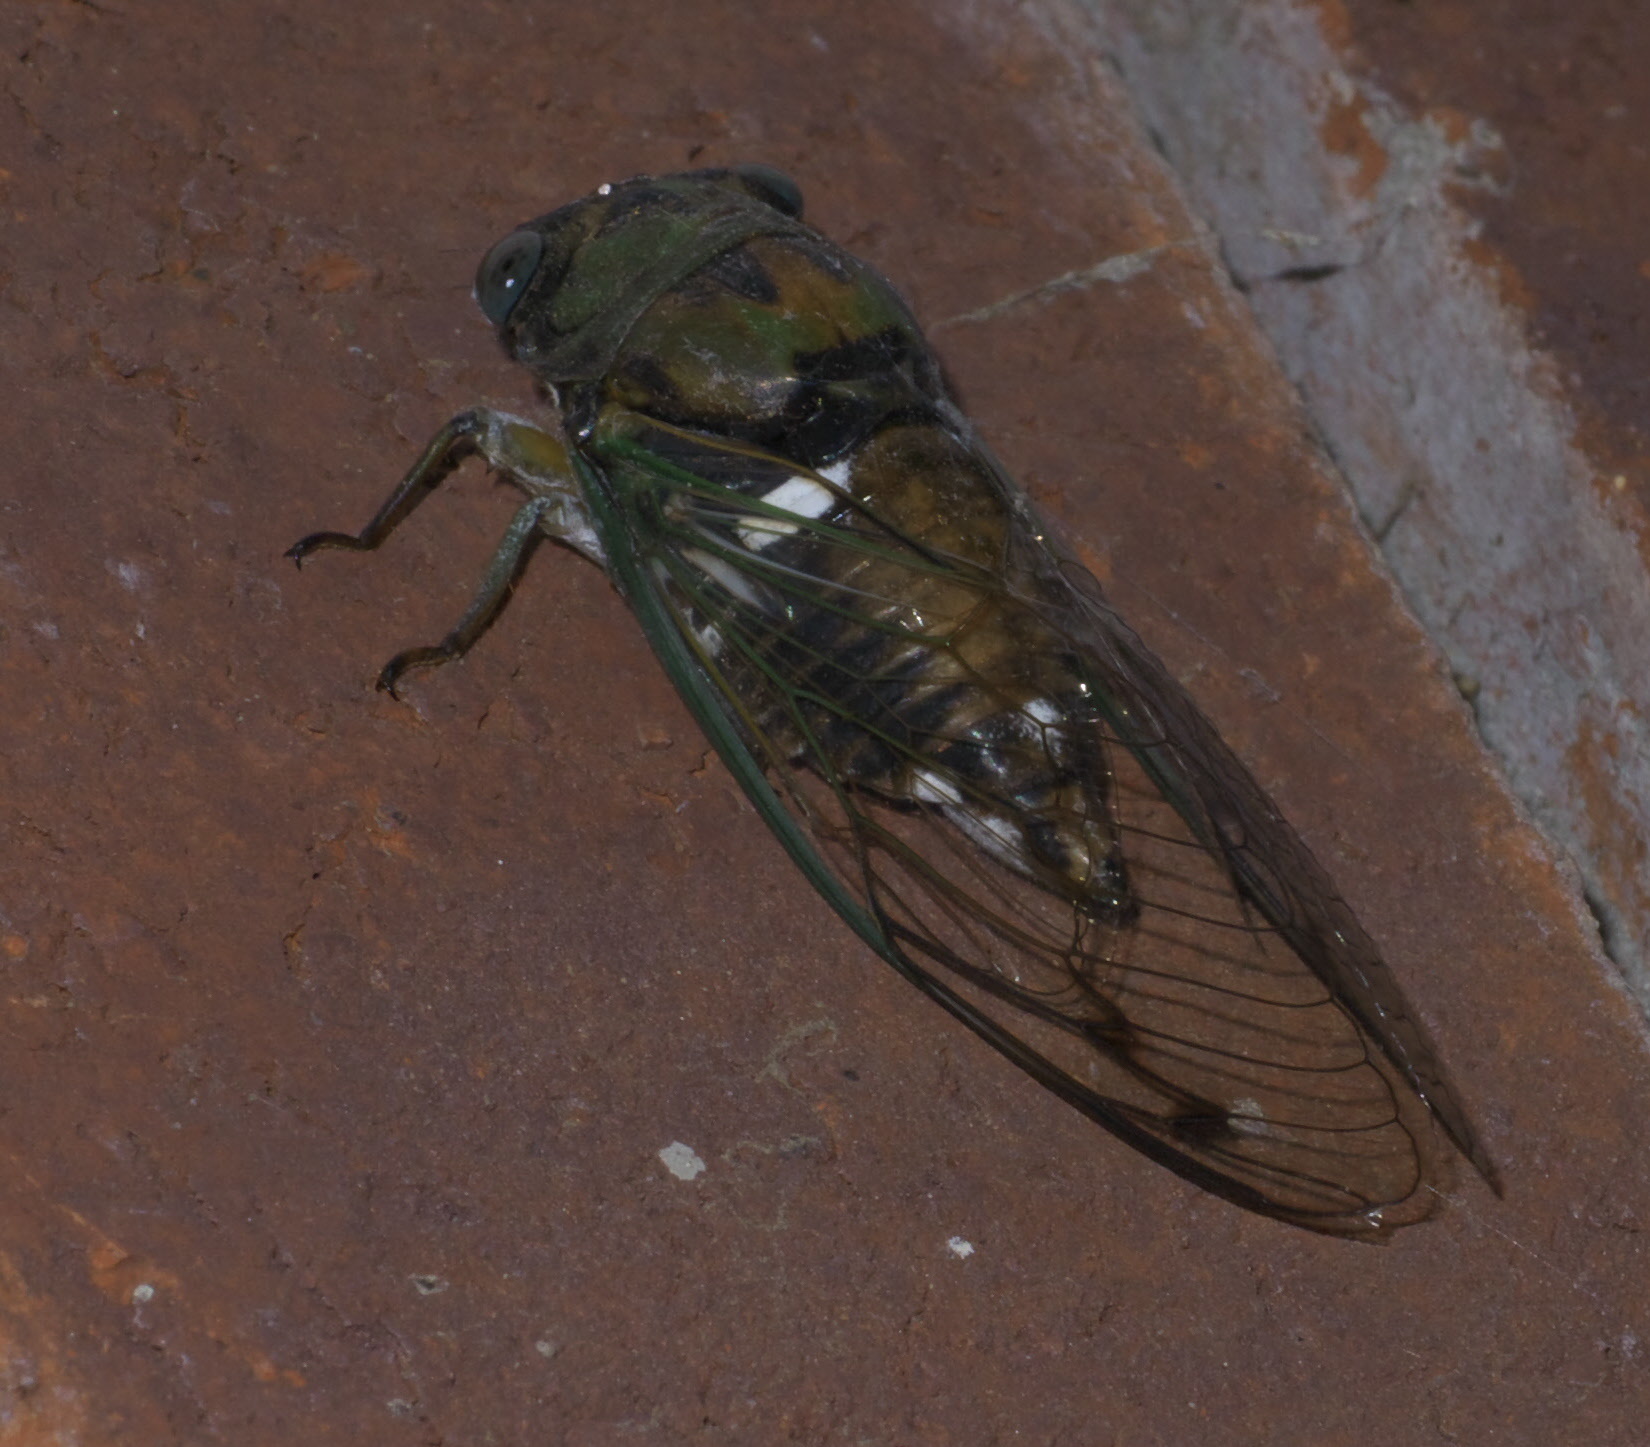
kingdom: Animalia
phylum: Arthropoda
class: Insecta
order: Hemiptera
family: Cicadidae
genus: Neotibicen
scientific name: Neotibicen pruinosus
